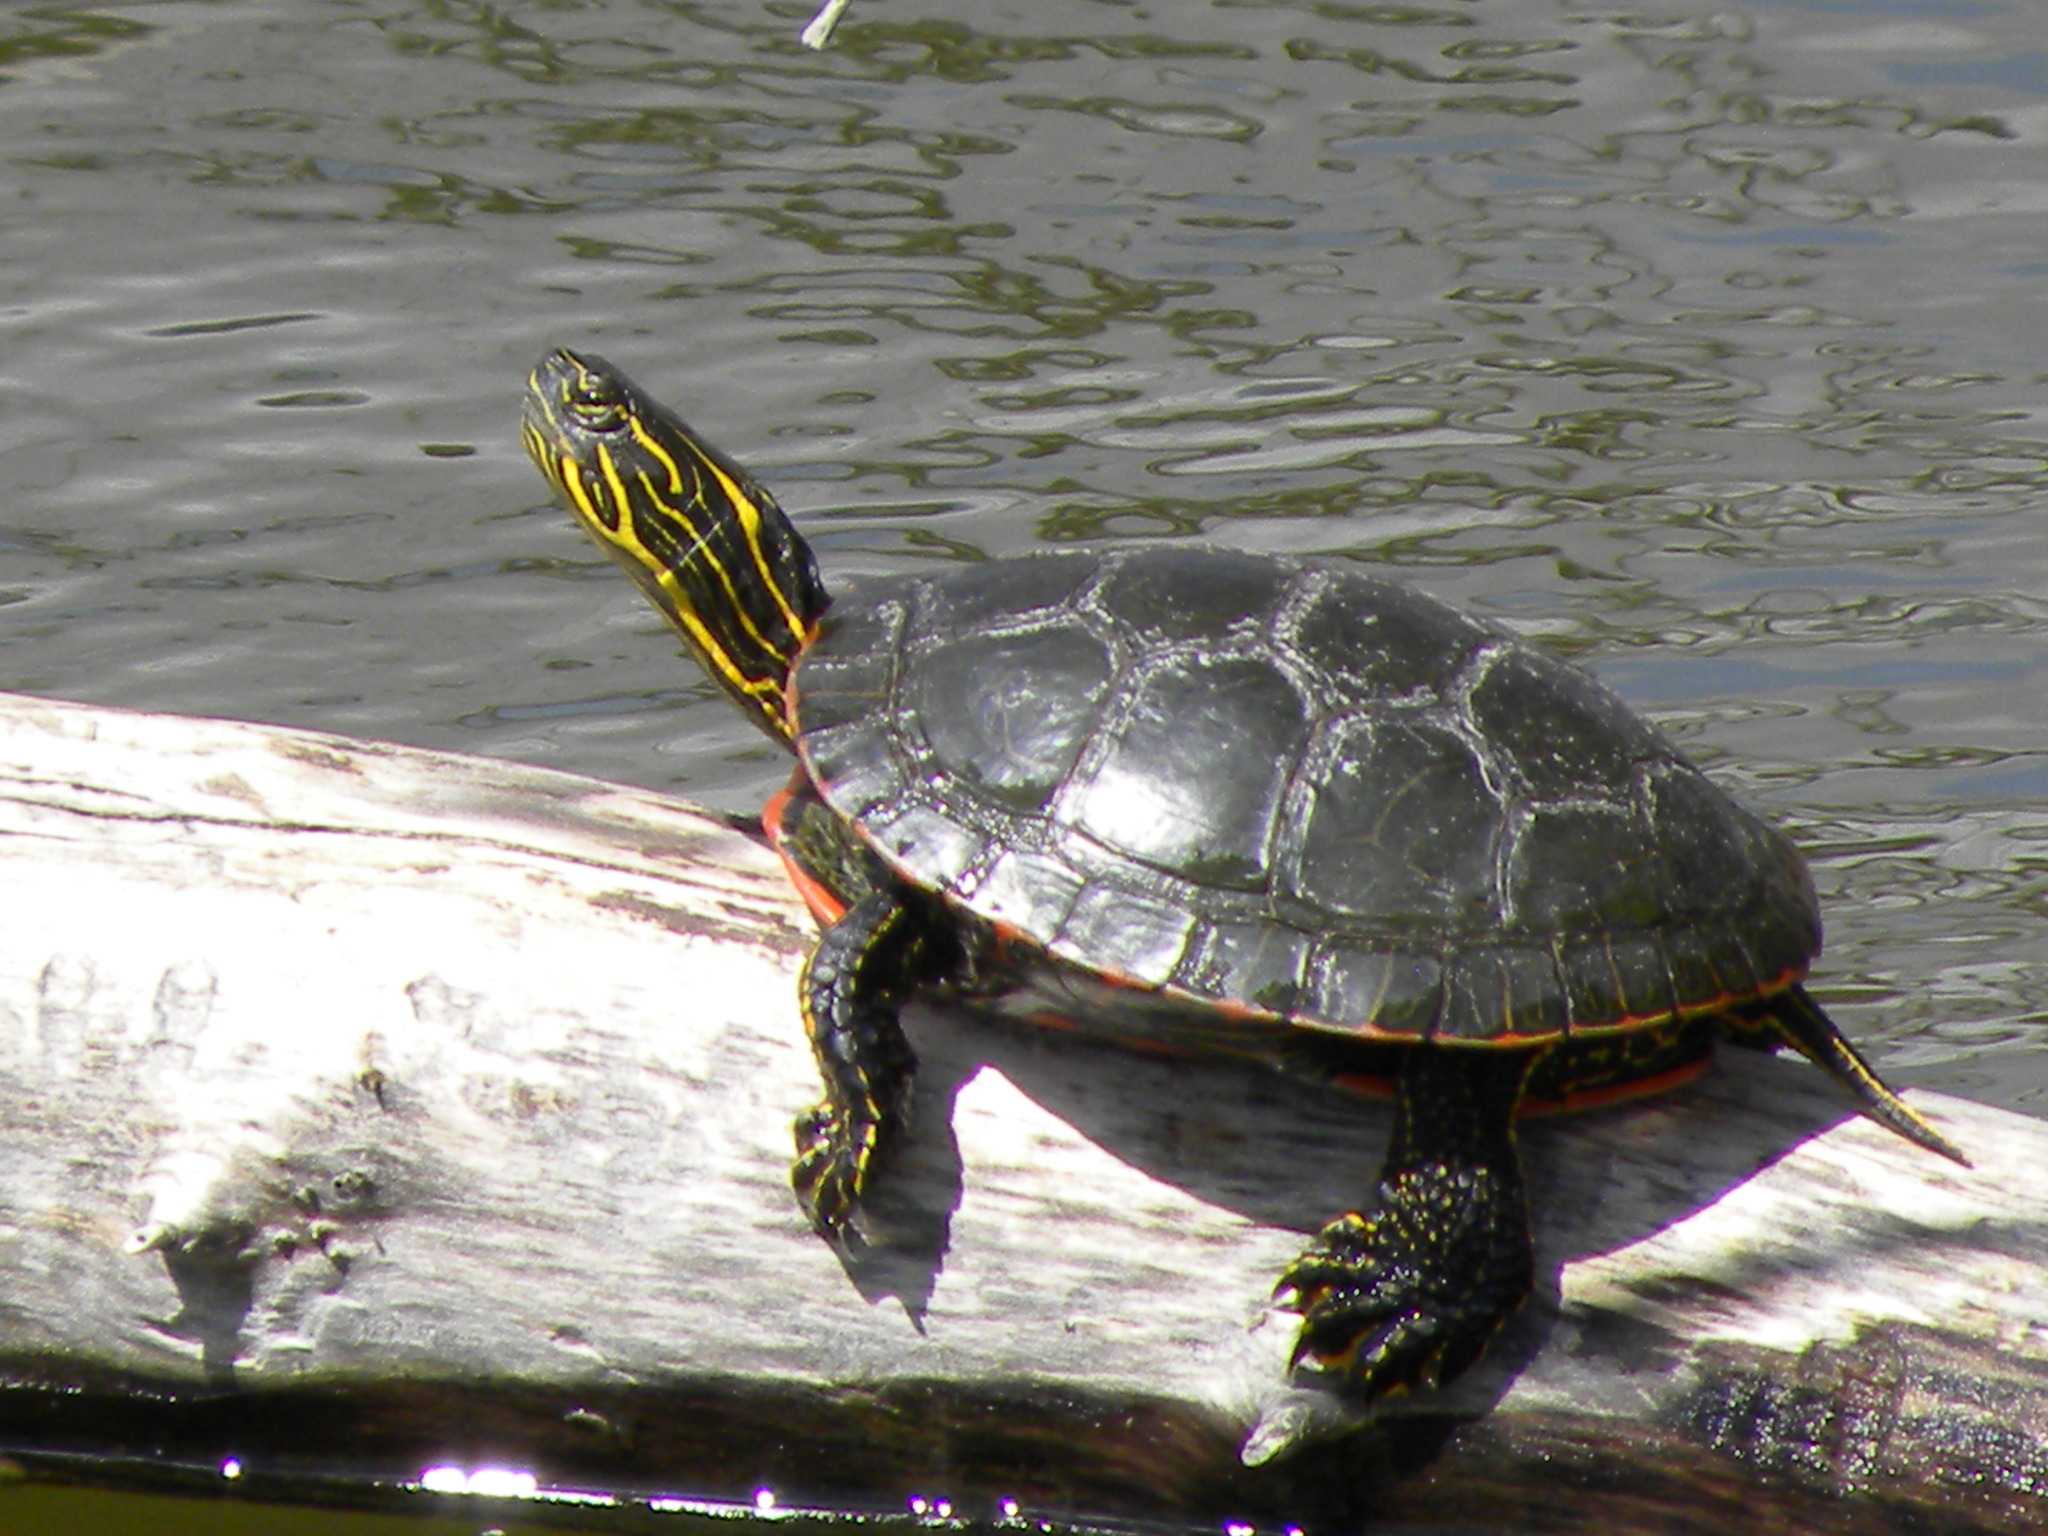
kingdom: Animalia
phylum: Chordata
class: Testudines
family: Emydidae
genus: Chrysemys
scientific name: Chrysemys picta
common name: Painted turtle
